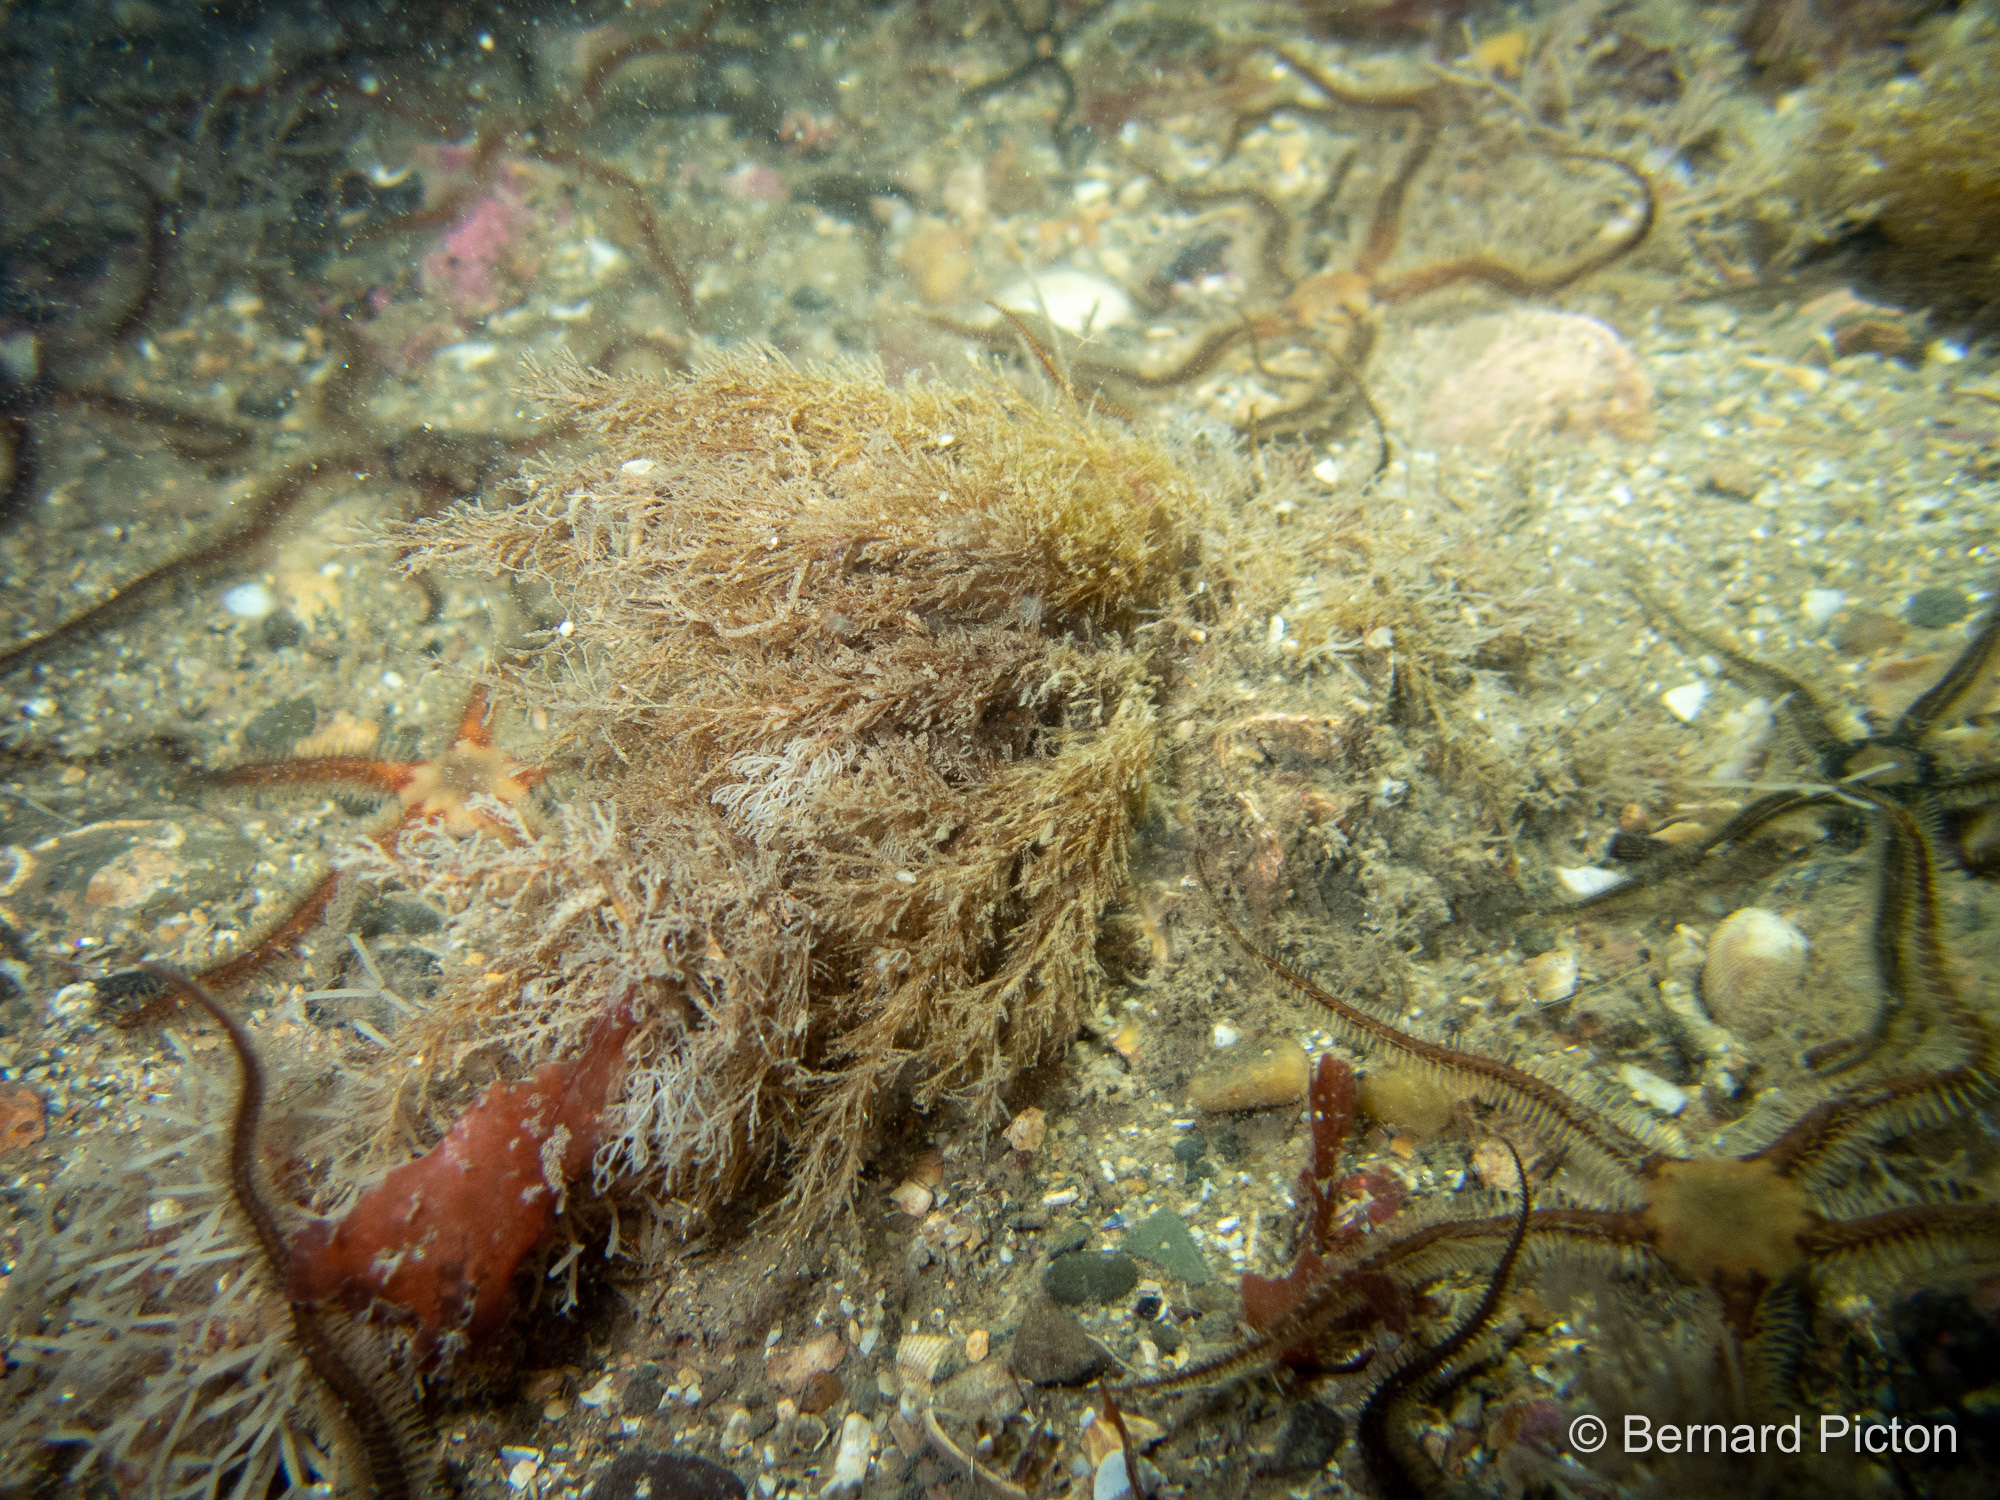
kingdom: Animalia
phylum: Bryozoa
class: Gymnolaemata
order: Cheilostomatida
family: Eucrateidae
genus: Eucratea
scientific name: Eucratea loricata
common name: Paired bryozoan
